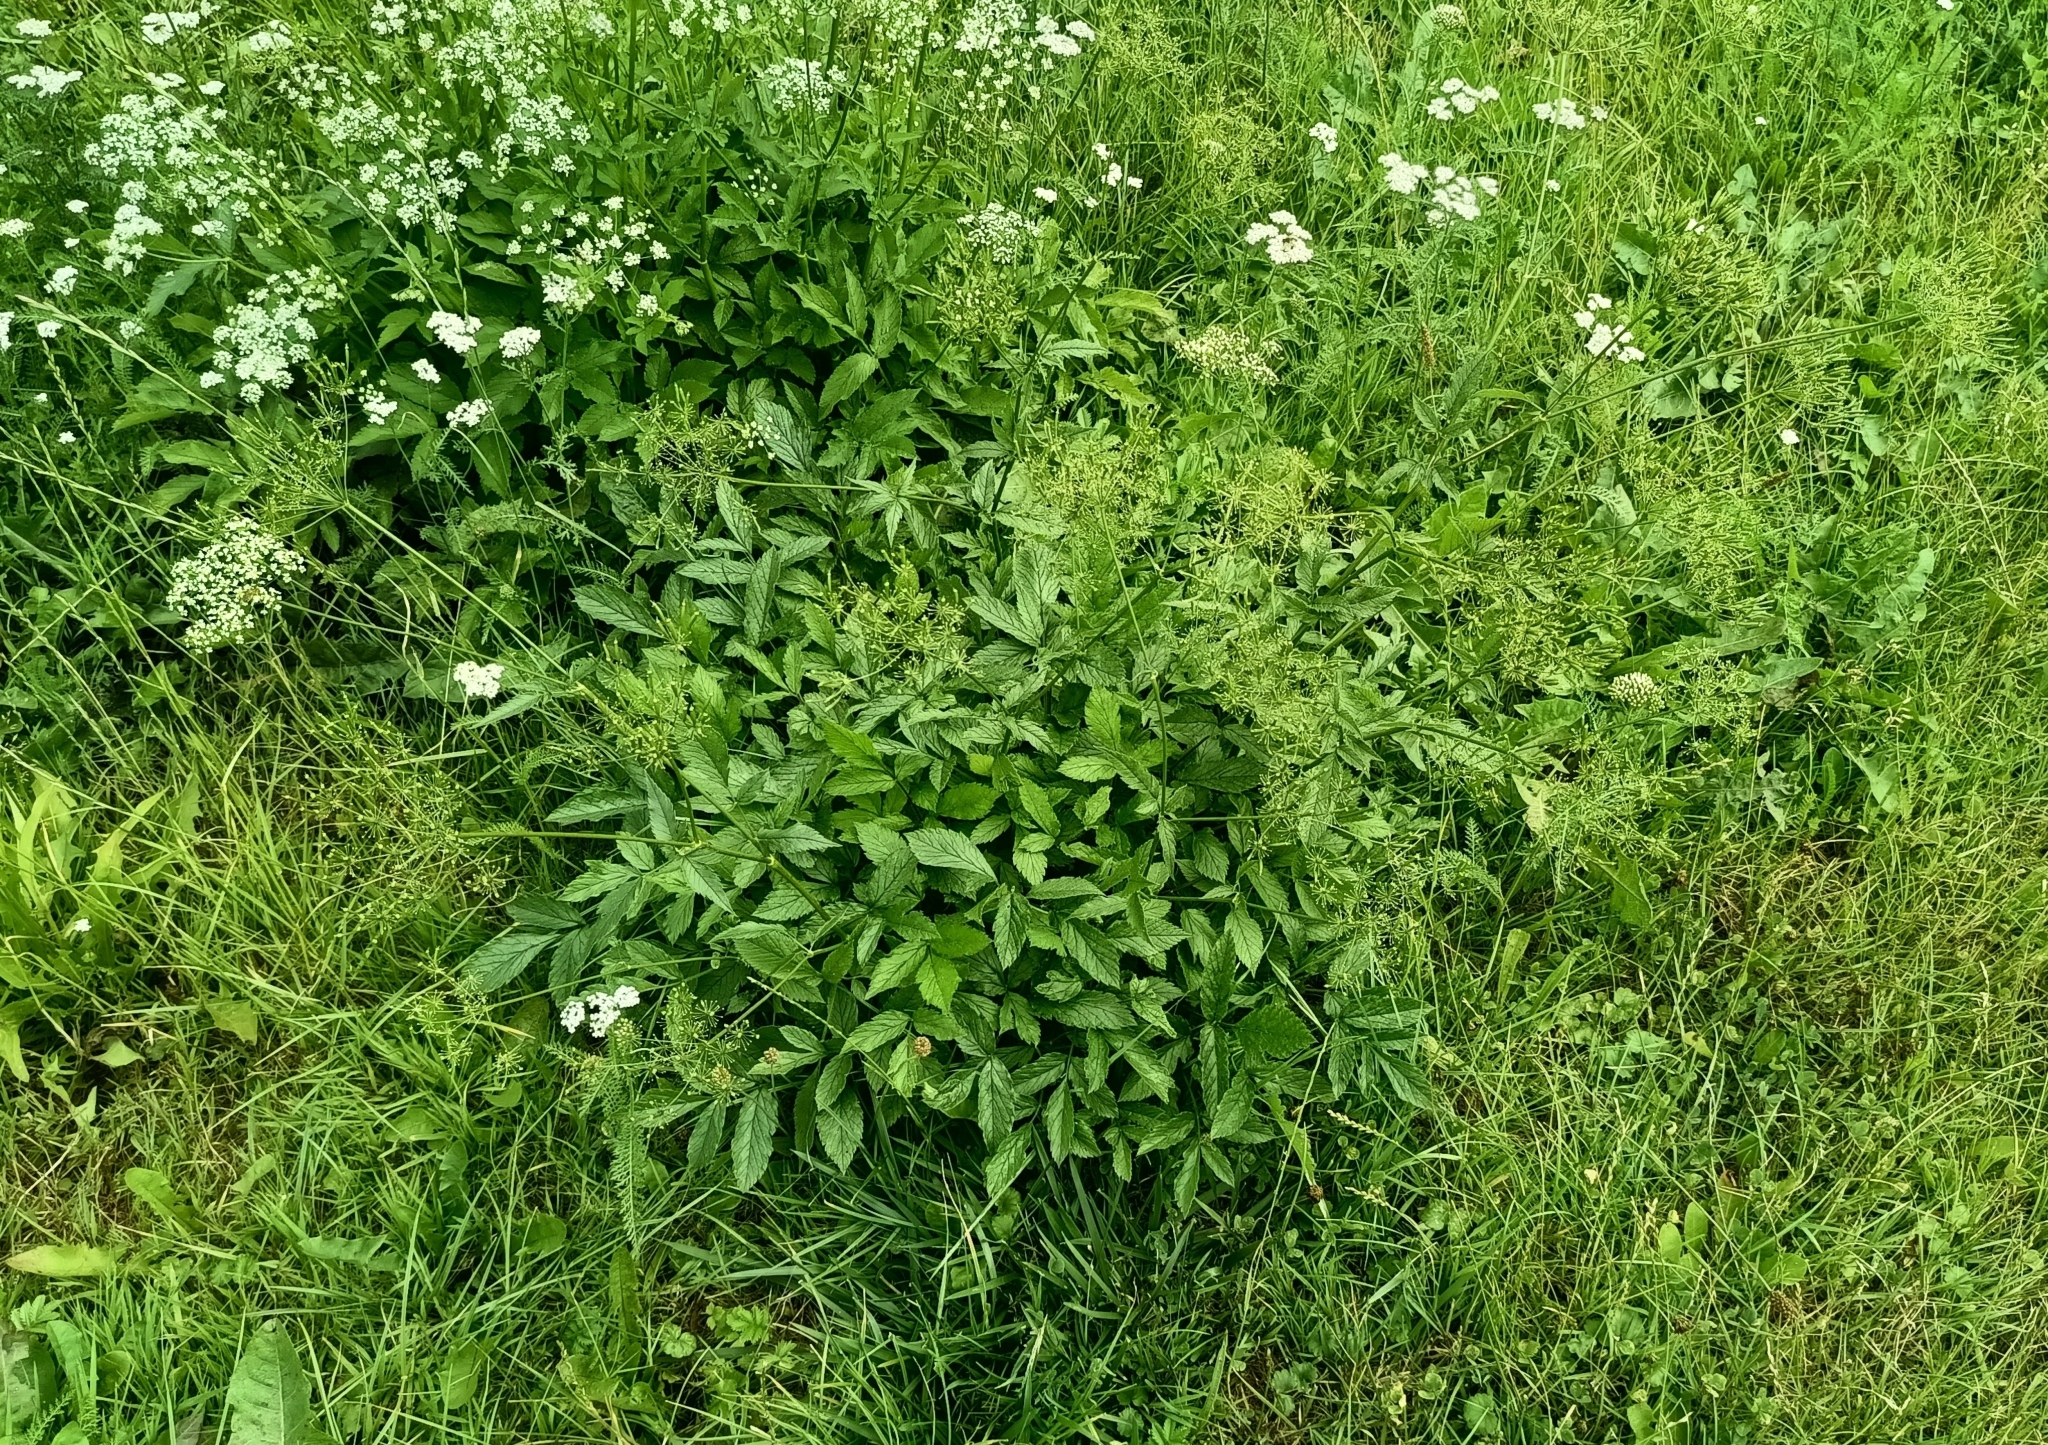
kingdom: Plantae
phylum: Tracheophyta
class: Magnoliopsida
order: Apiales
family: Apiaceae
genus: Chaerophyllum
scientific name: Chaerophyllum aromaticum
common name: Broadleaf chervil
